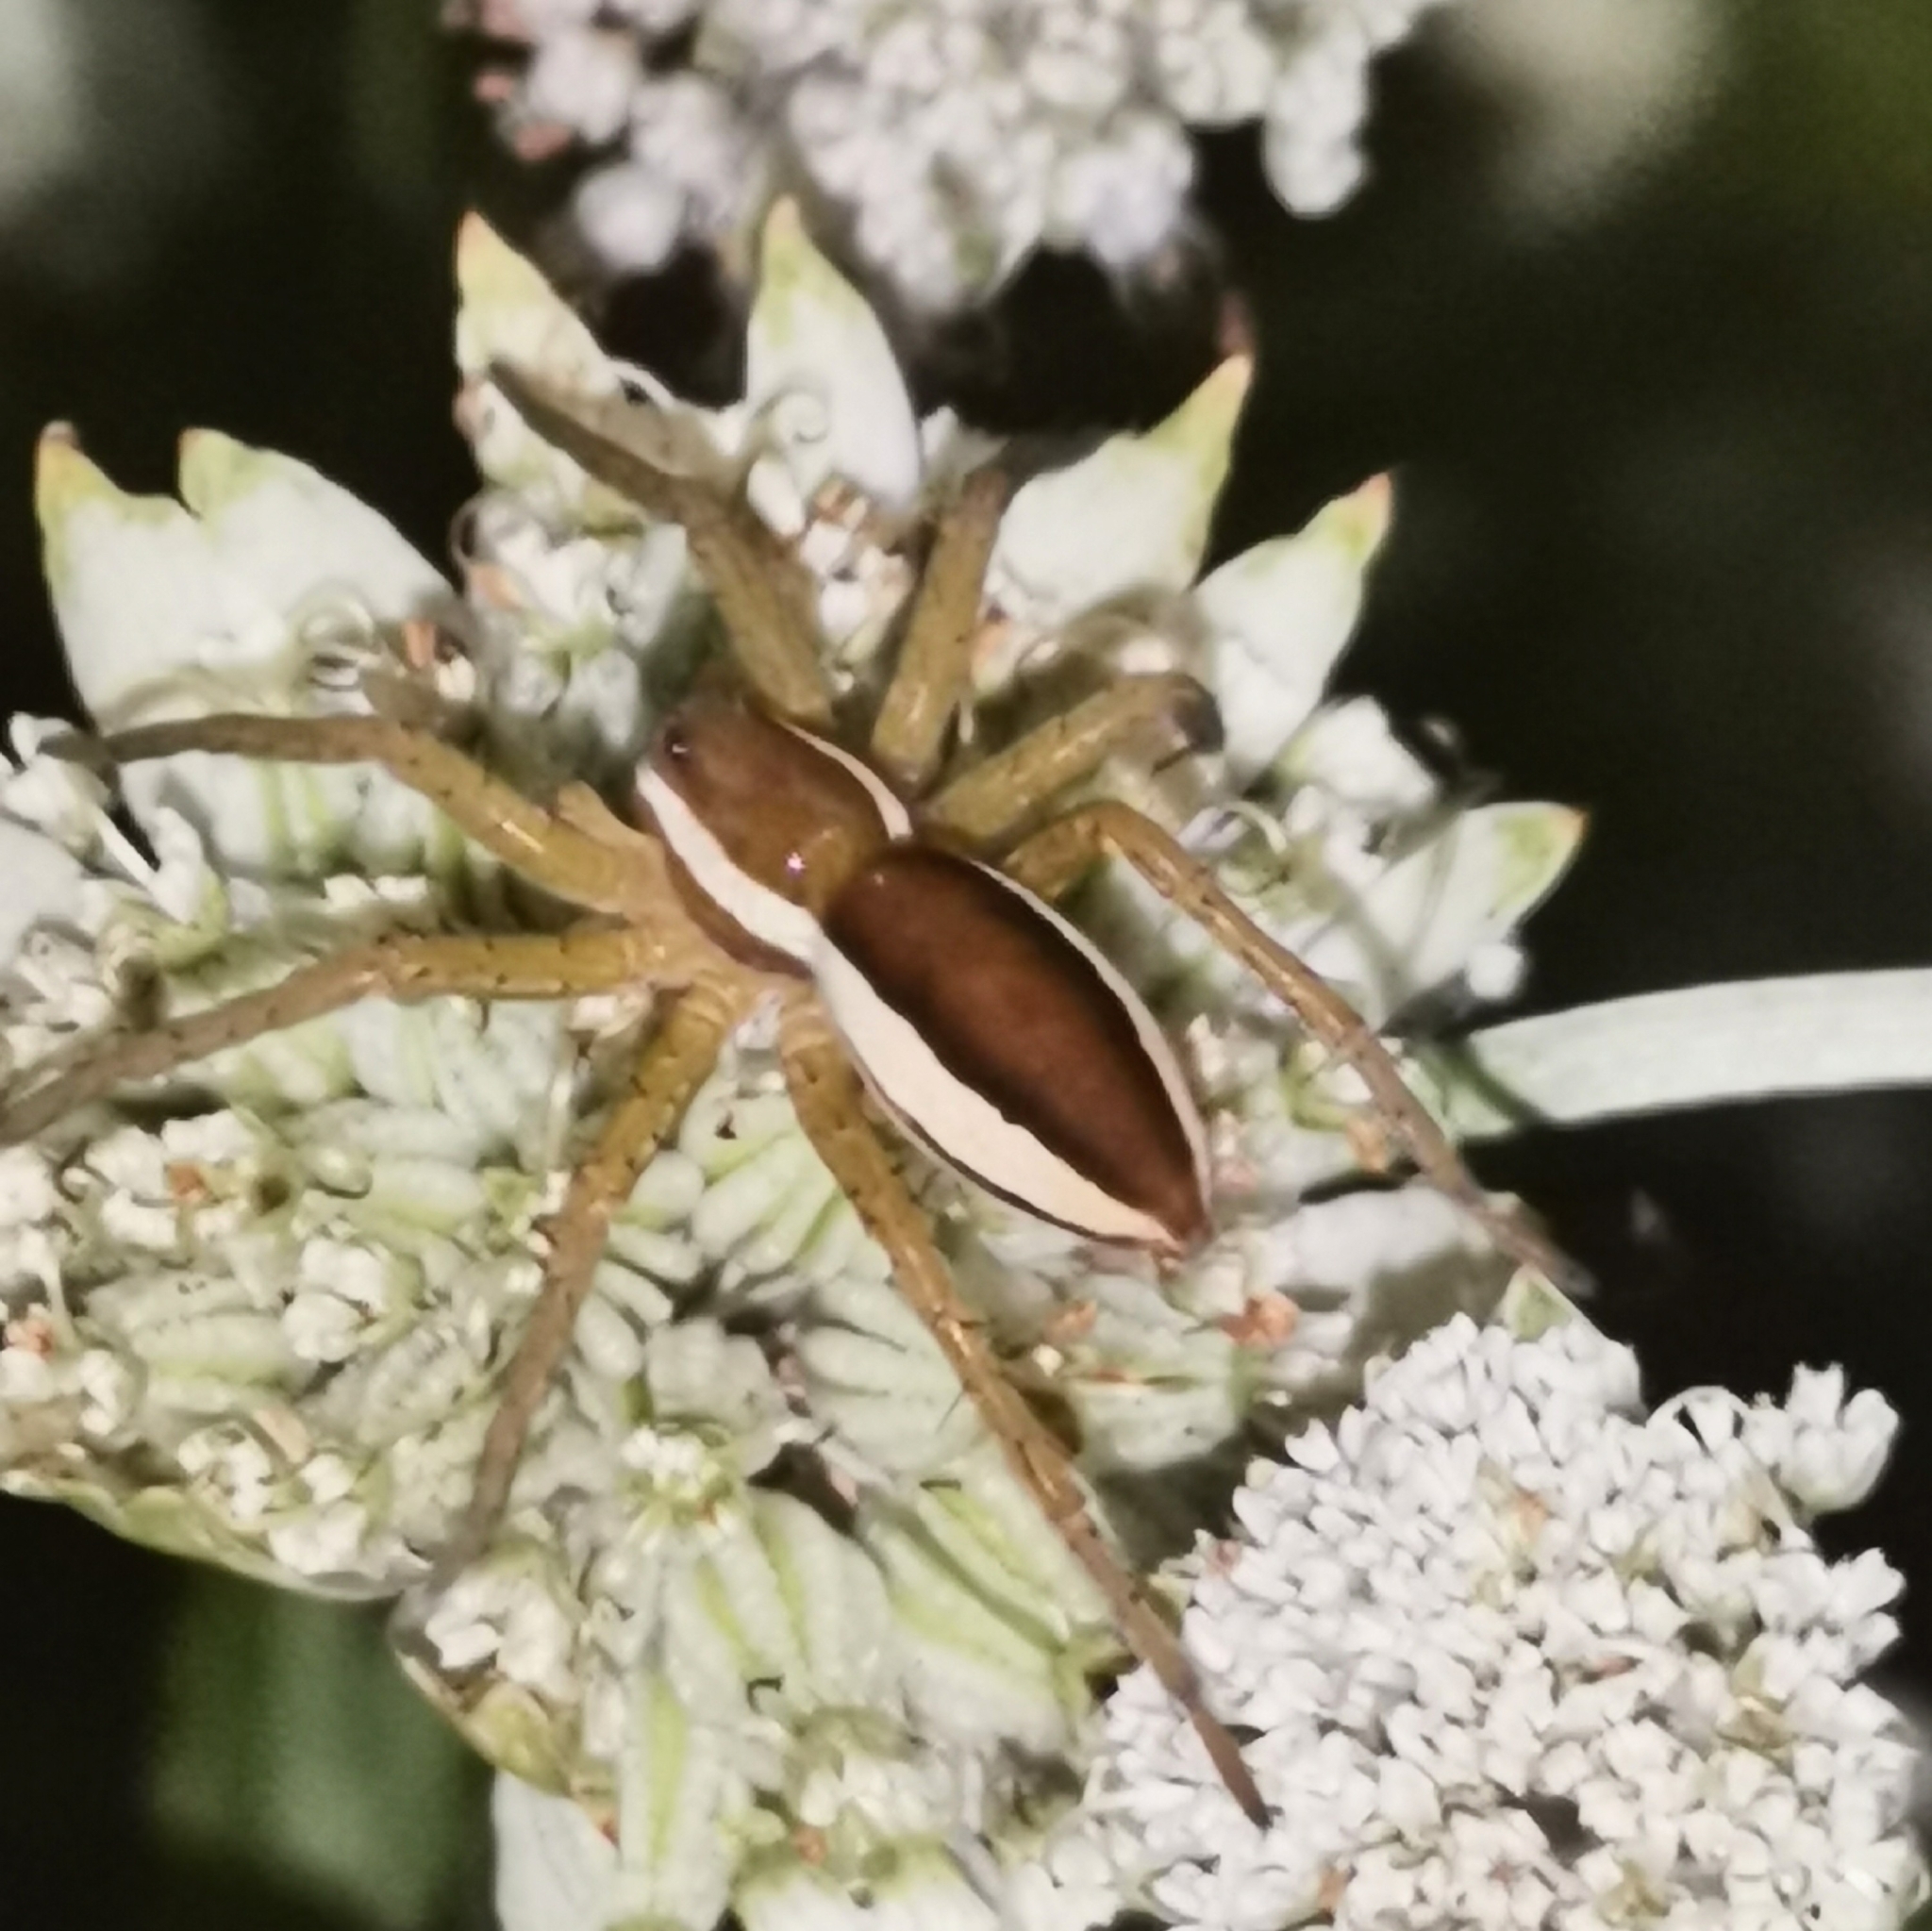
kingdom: Animalia
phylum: Arthropoda
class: Arachnida
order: Araneae
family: Pisauridae
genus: Dolomedes
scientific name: Dolomedes fimbriatus
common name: Raft spider
